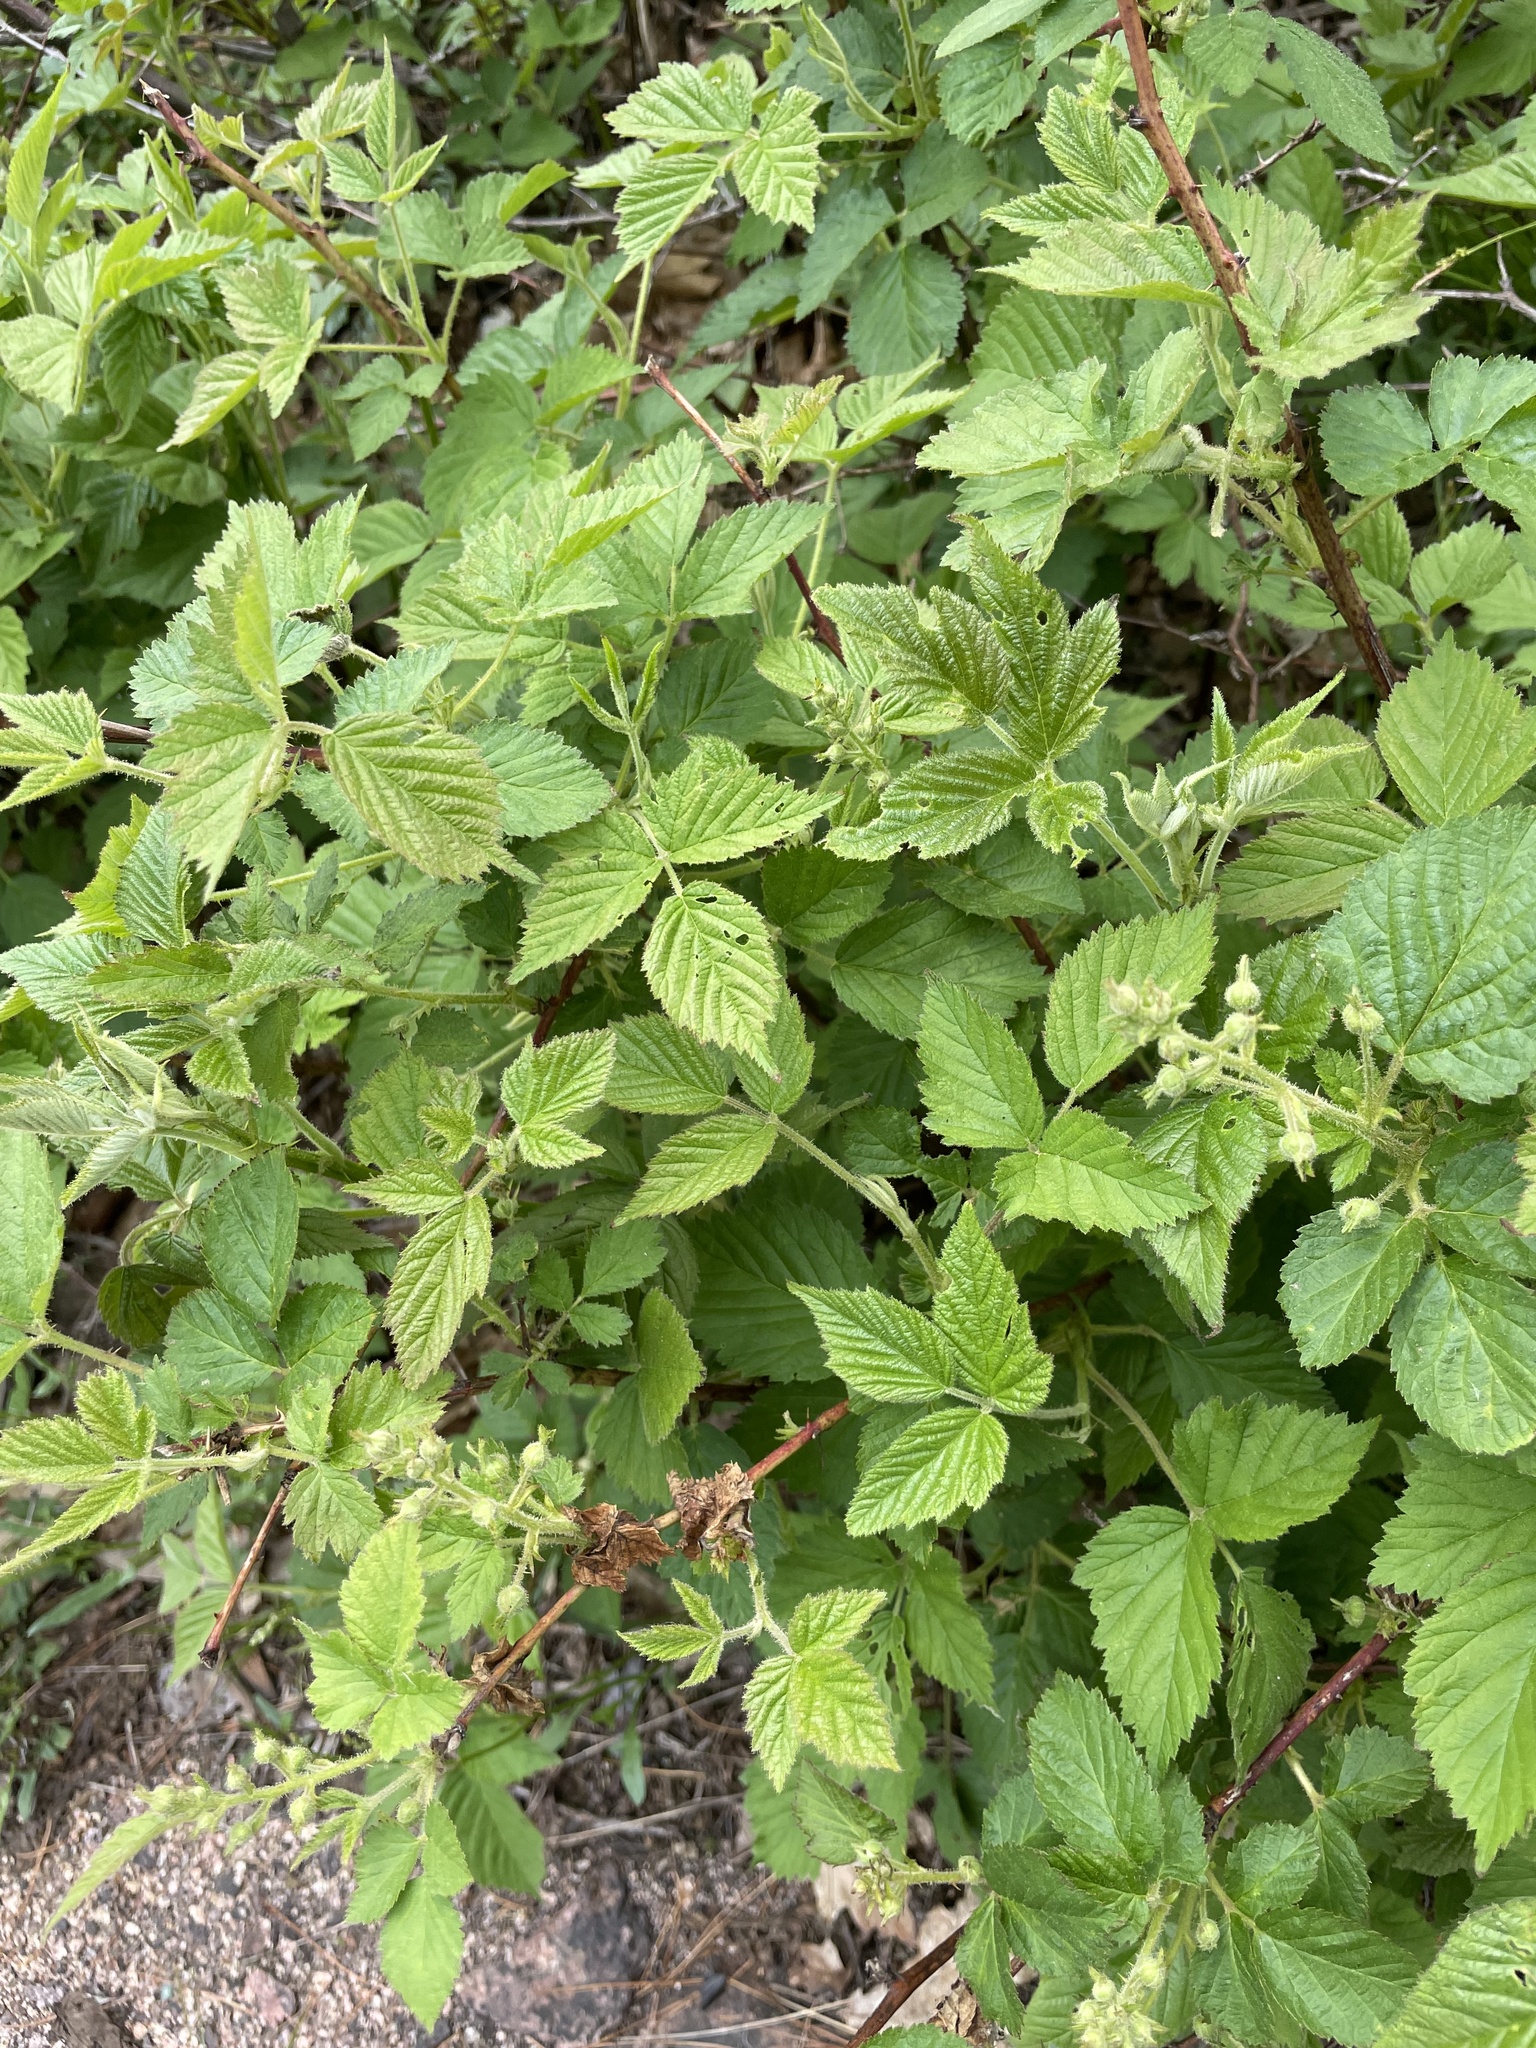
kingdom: Plantae
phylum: Tracheophyta
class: Magnoliopsida
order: Rosales
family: Rosaceae
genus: Rubus
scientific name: Rubus idaeus
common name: Raspberry
